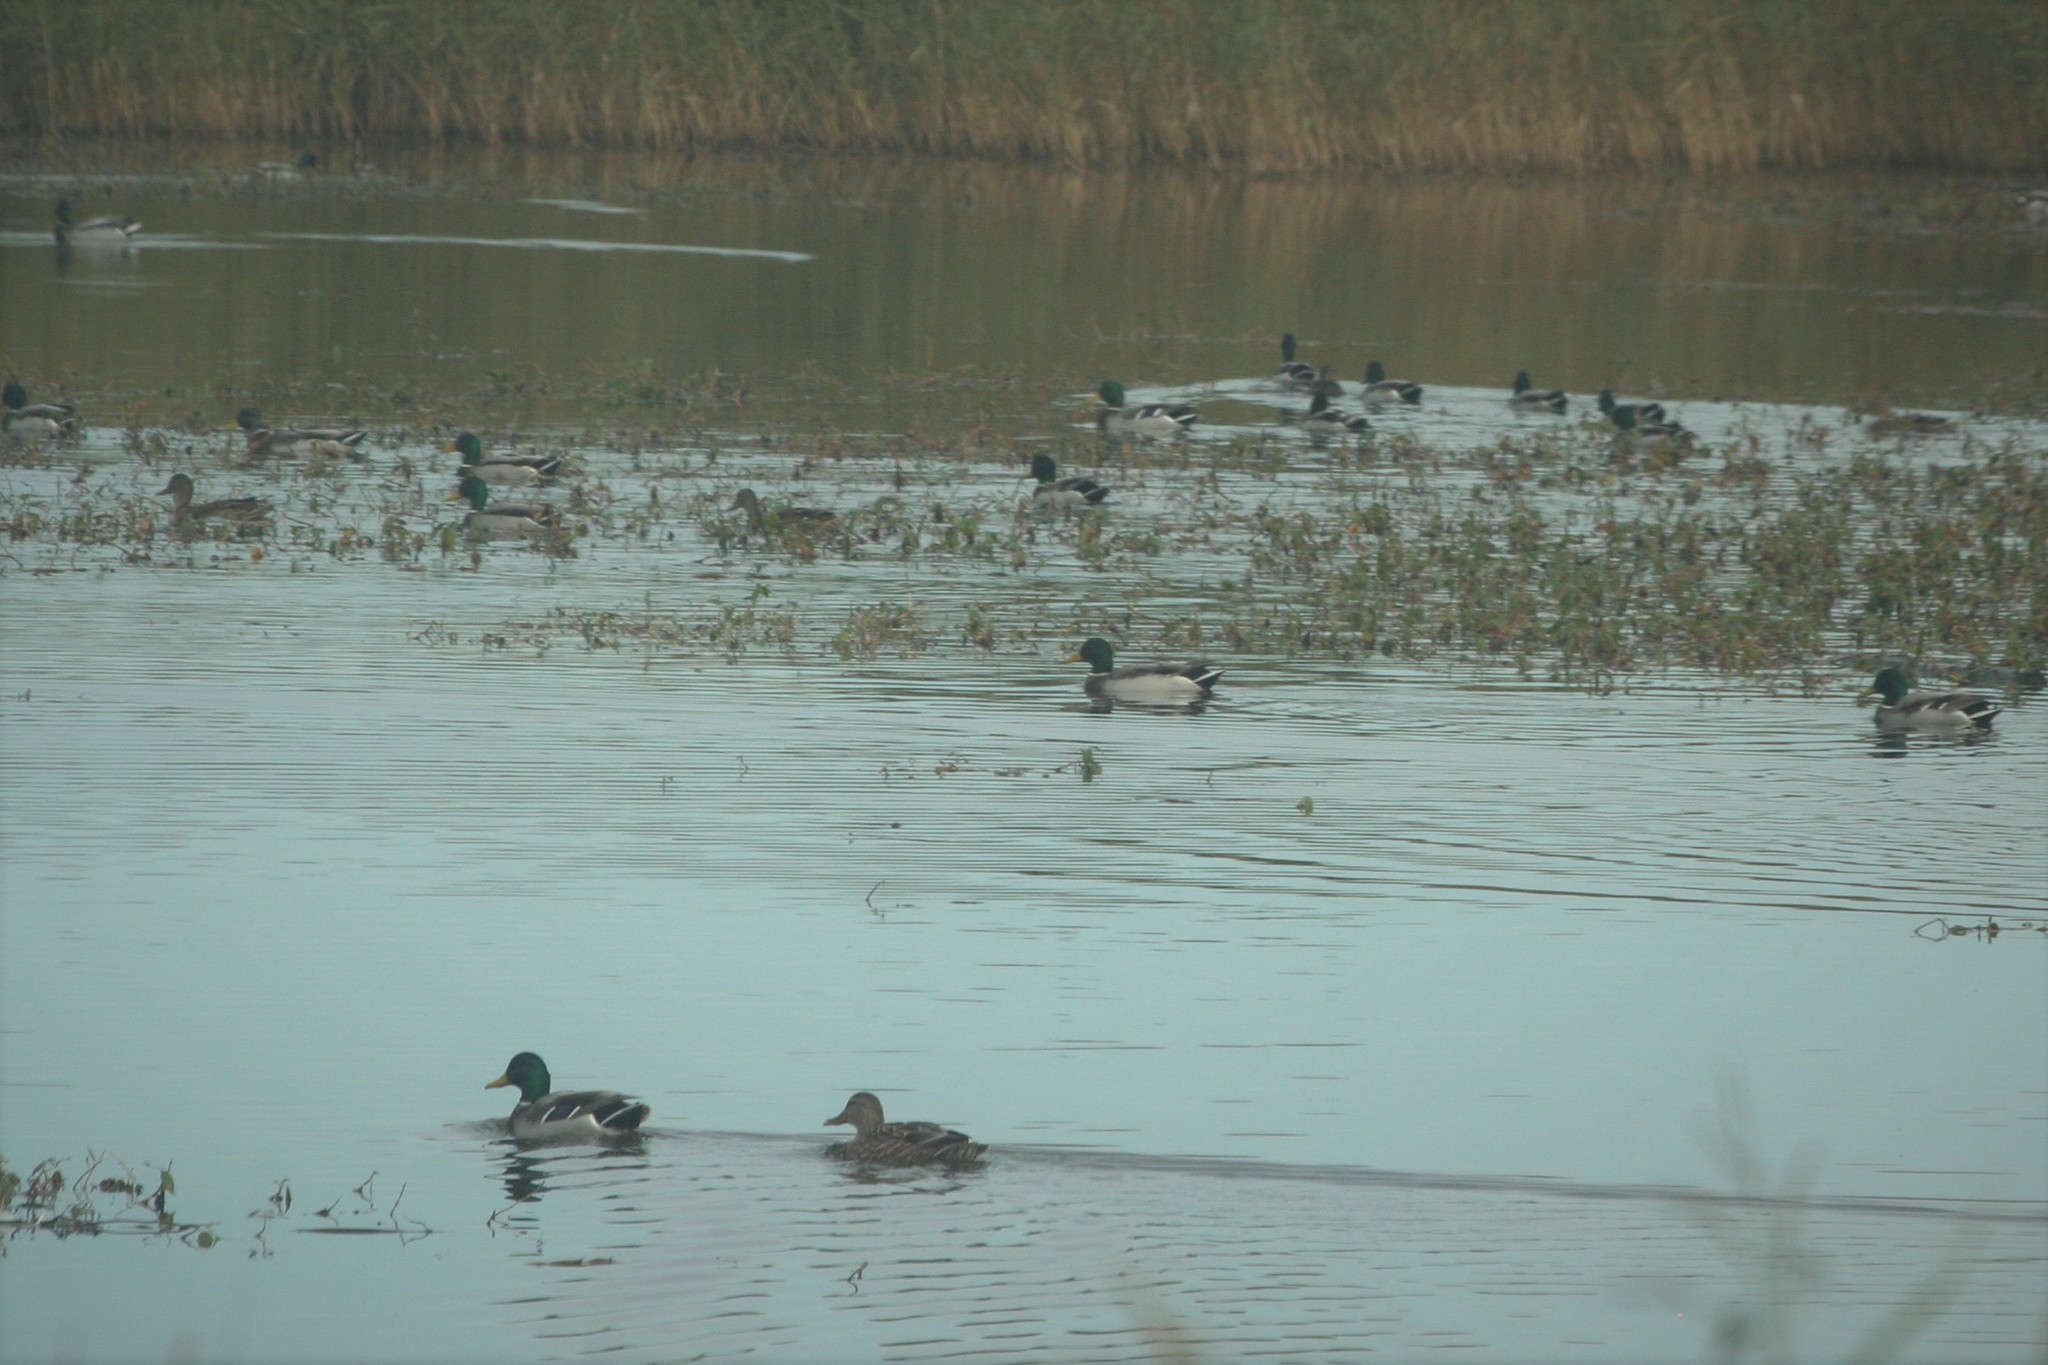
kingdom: Animalia
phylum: Chordata
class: Aves
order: Anseriformes
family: Anatidae
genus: Anas
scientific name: Anas platyrhynchos
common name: Mallard
